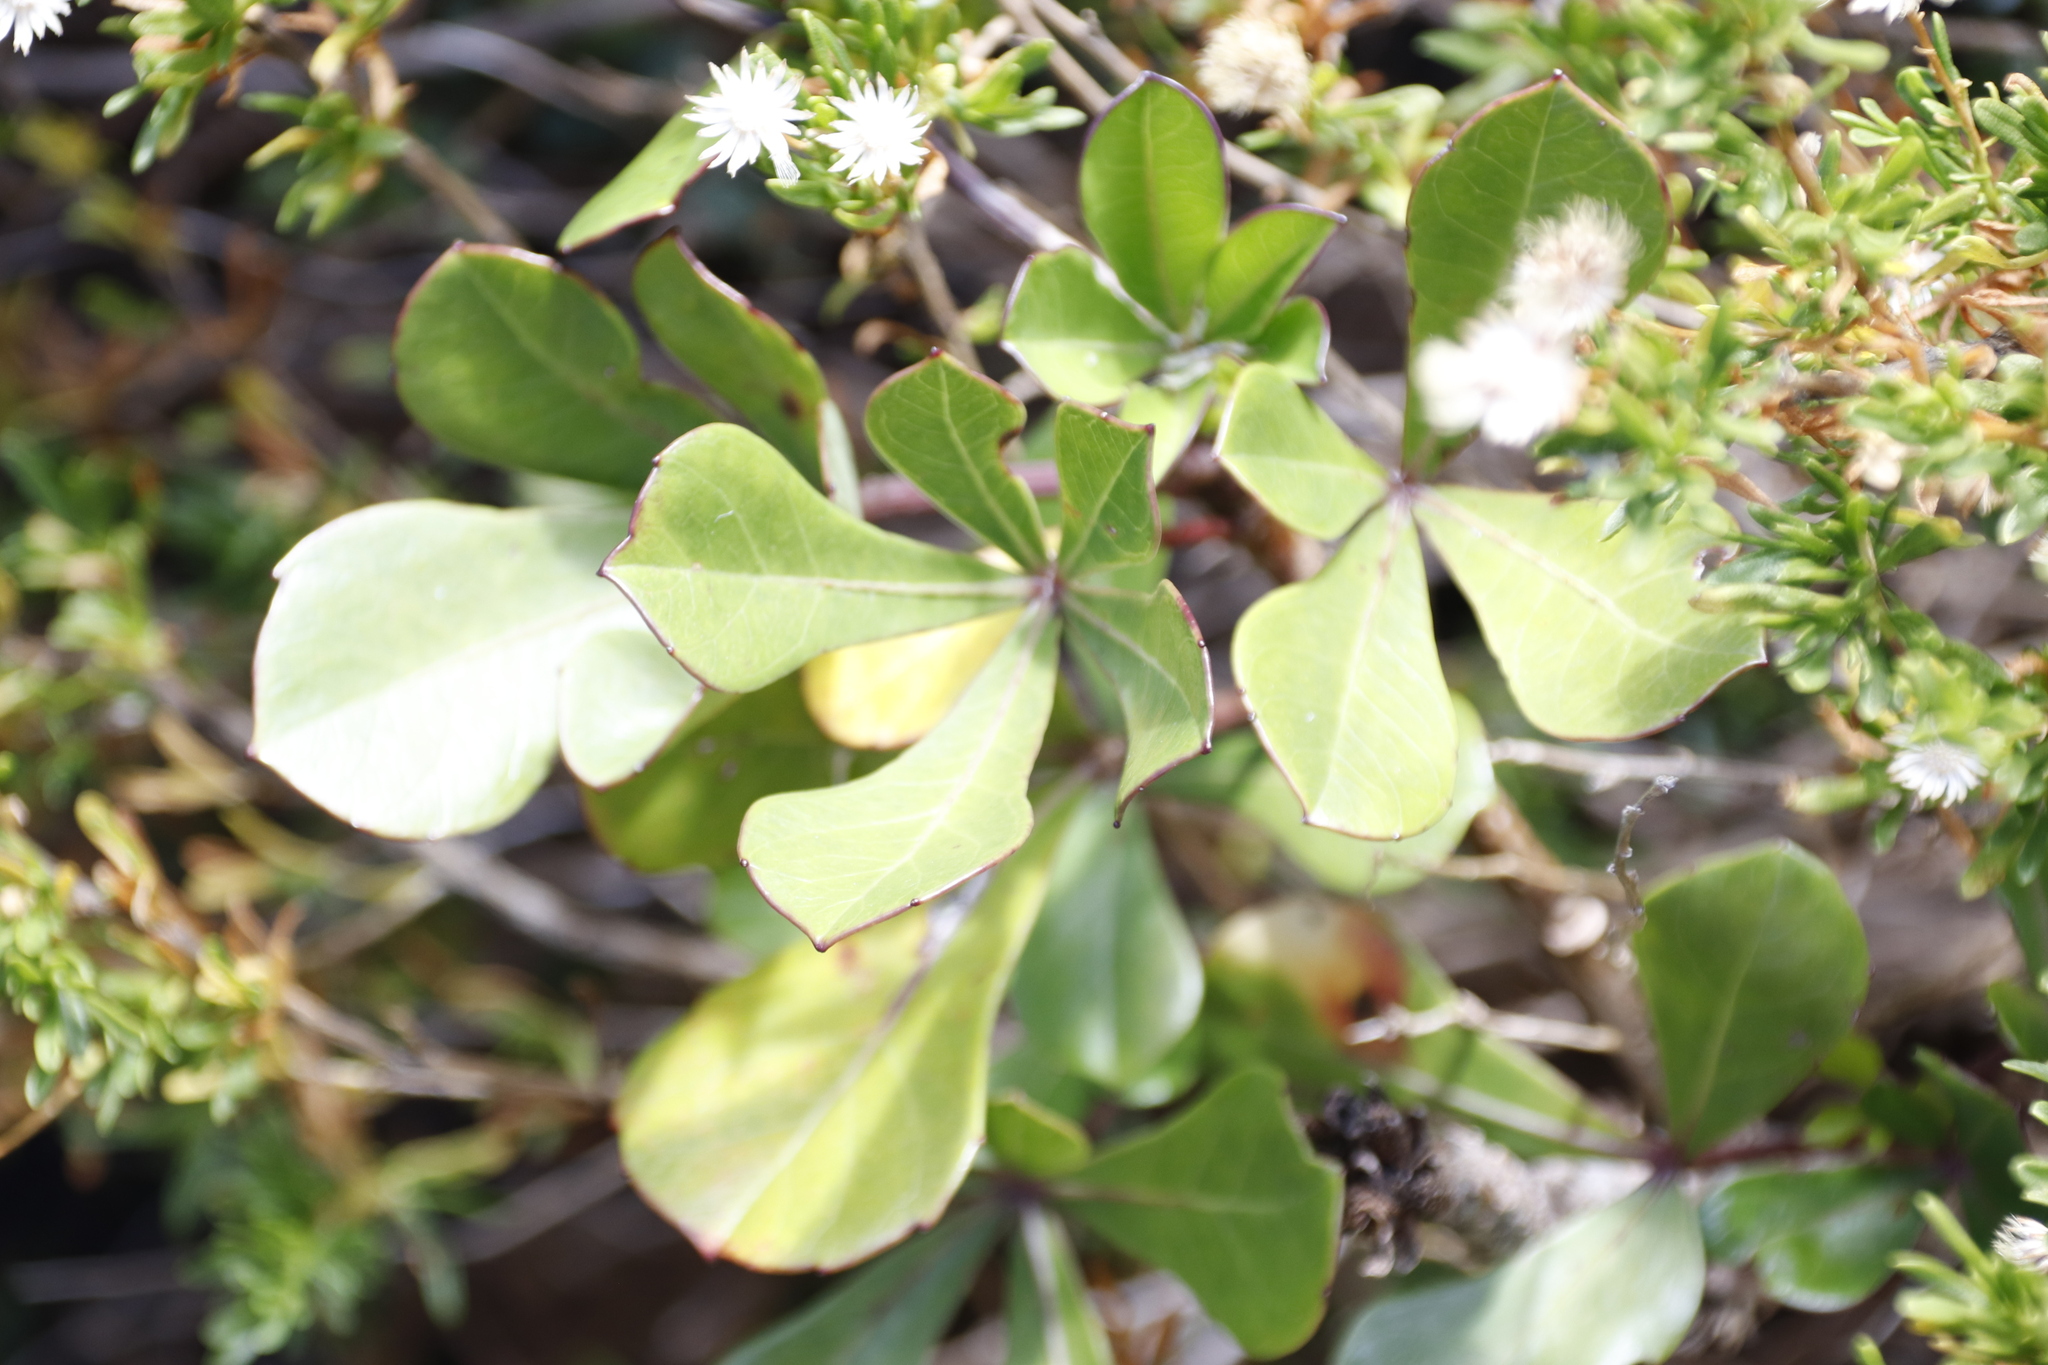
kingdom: Plantae
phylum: Tracheophyta
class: Magnoliopsida
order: Apiales
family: Araliaceae
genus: Cussonia
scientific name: Cussonia thyrsiflora
